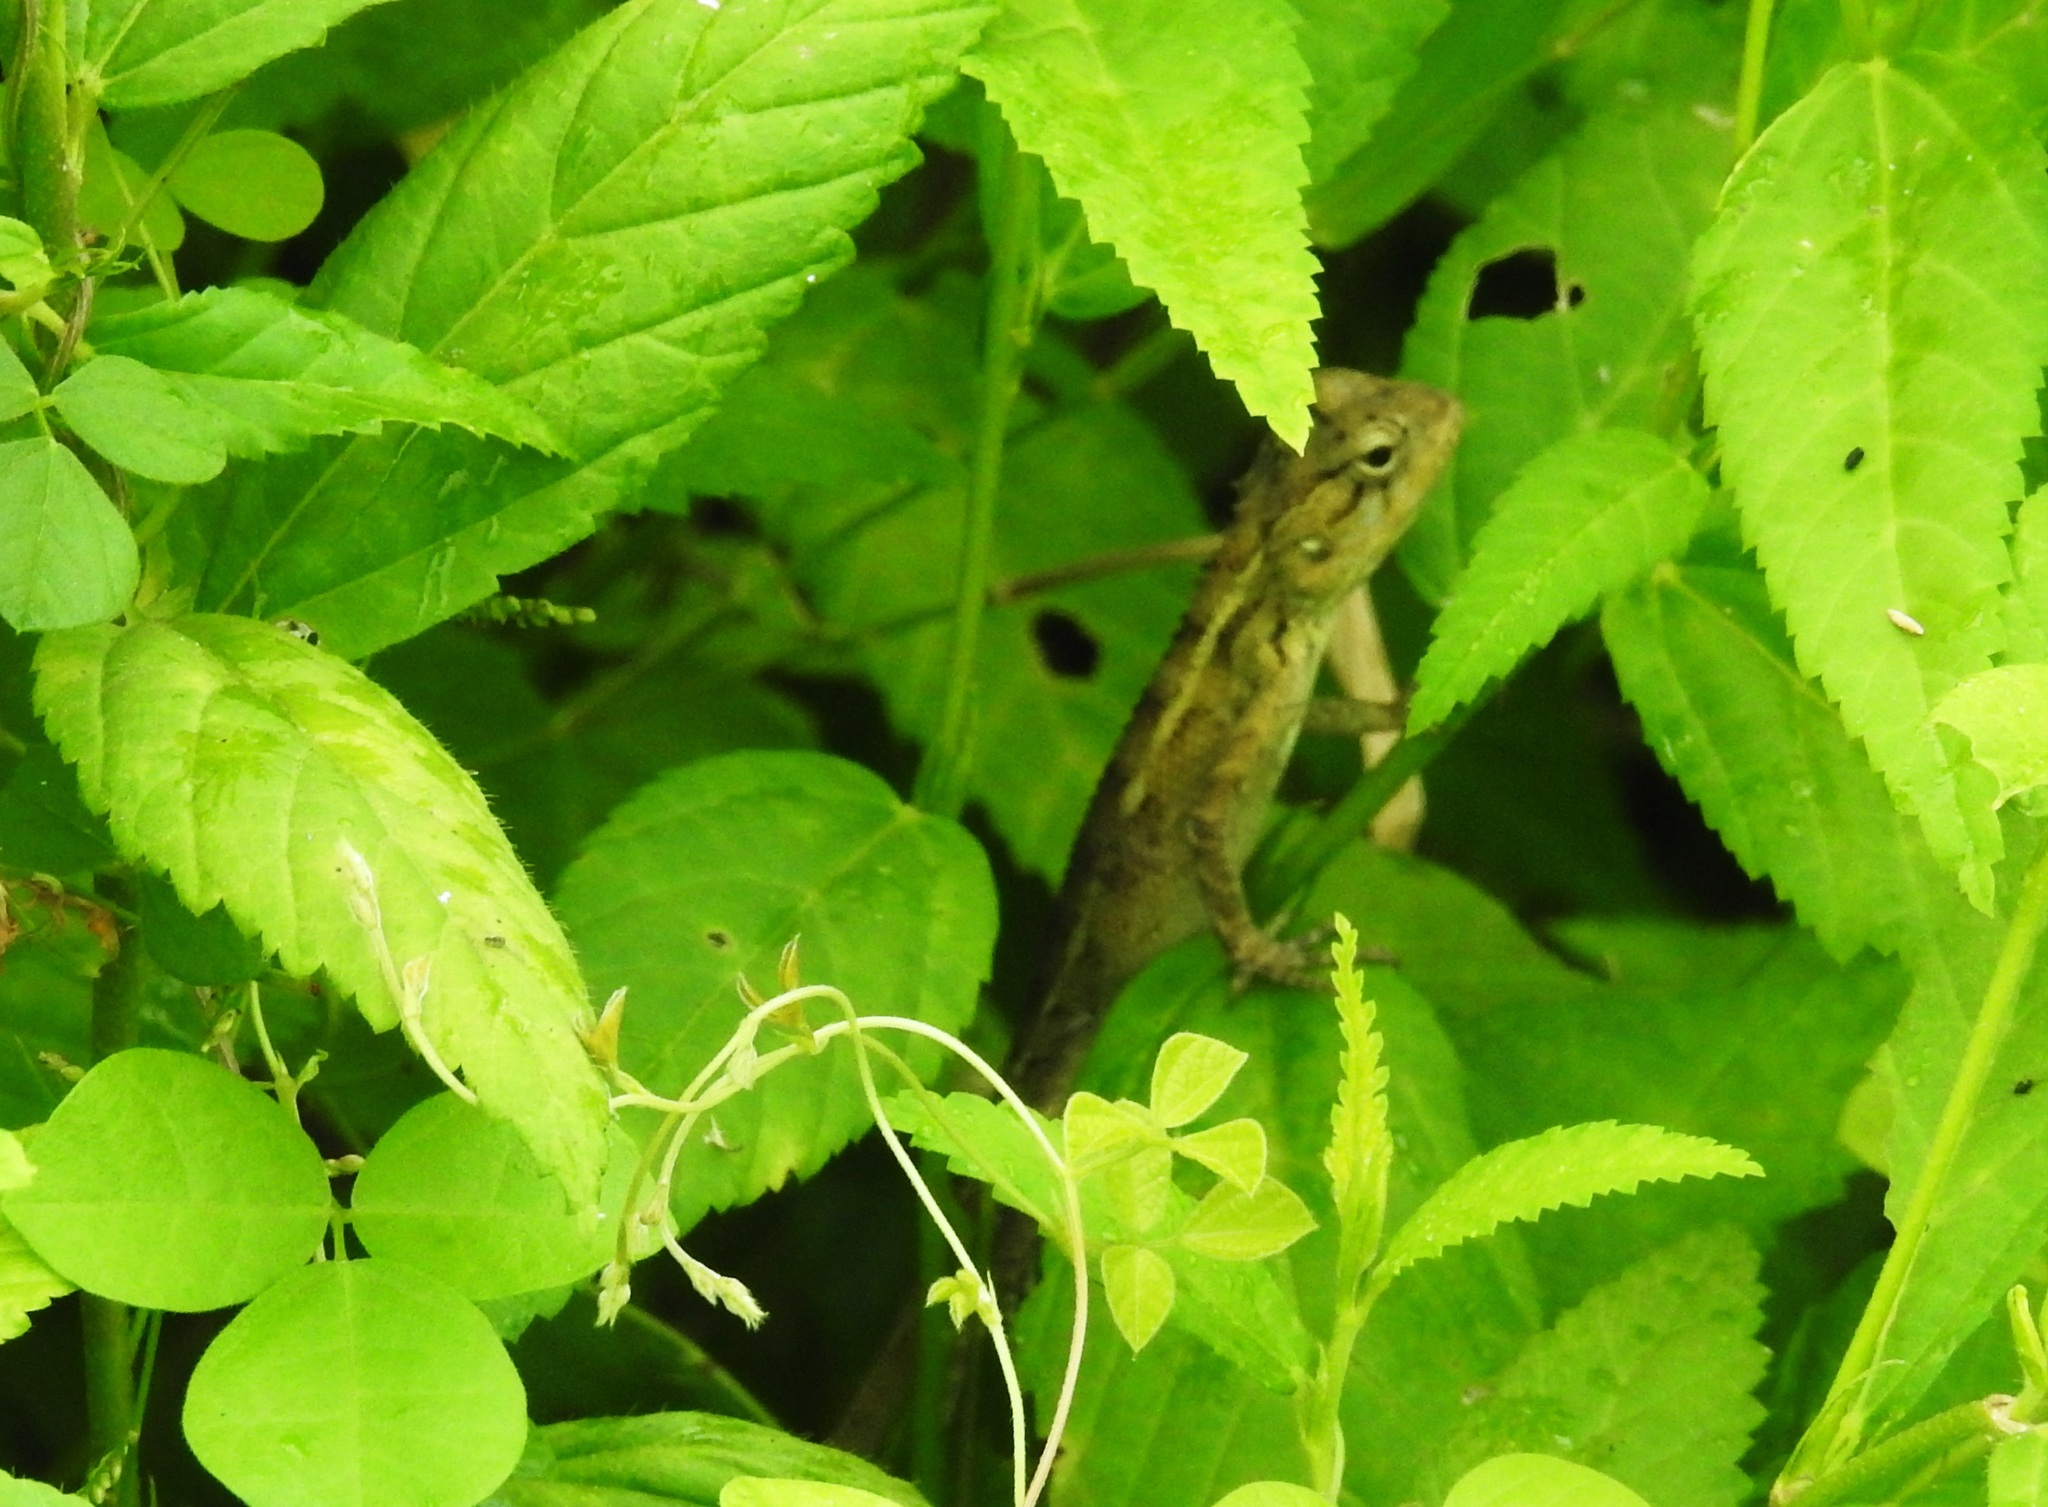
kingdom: Animalia
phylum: Chordata
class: Squamata
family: Agamidae
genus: Calotes
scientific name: Calotes versicolor
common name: Oriental garden lizard
